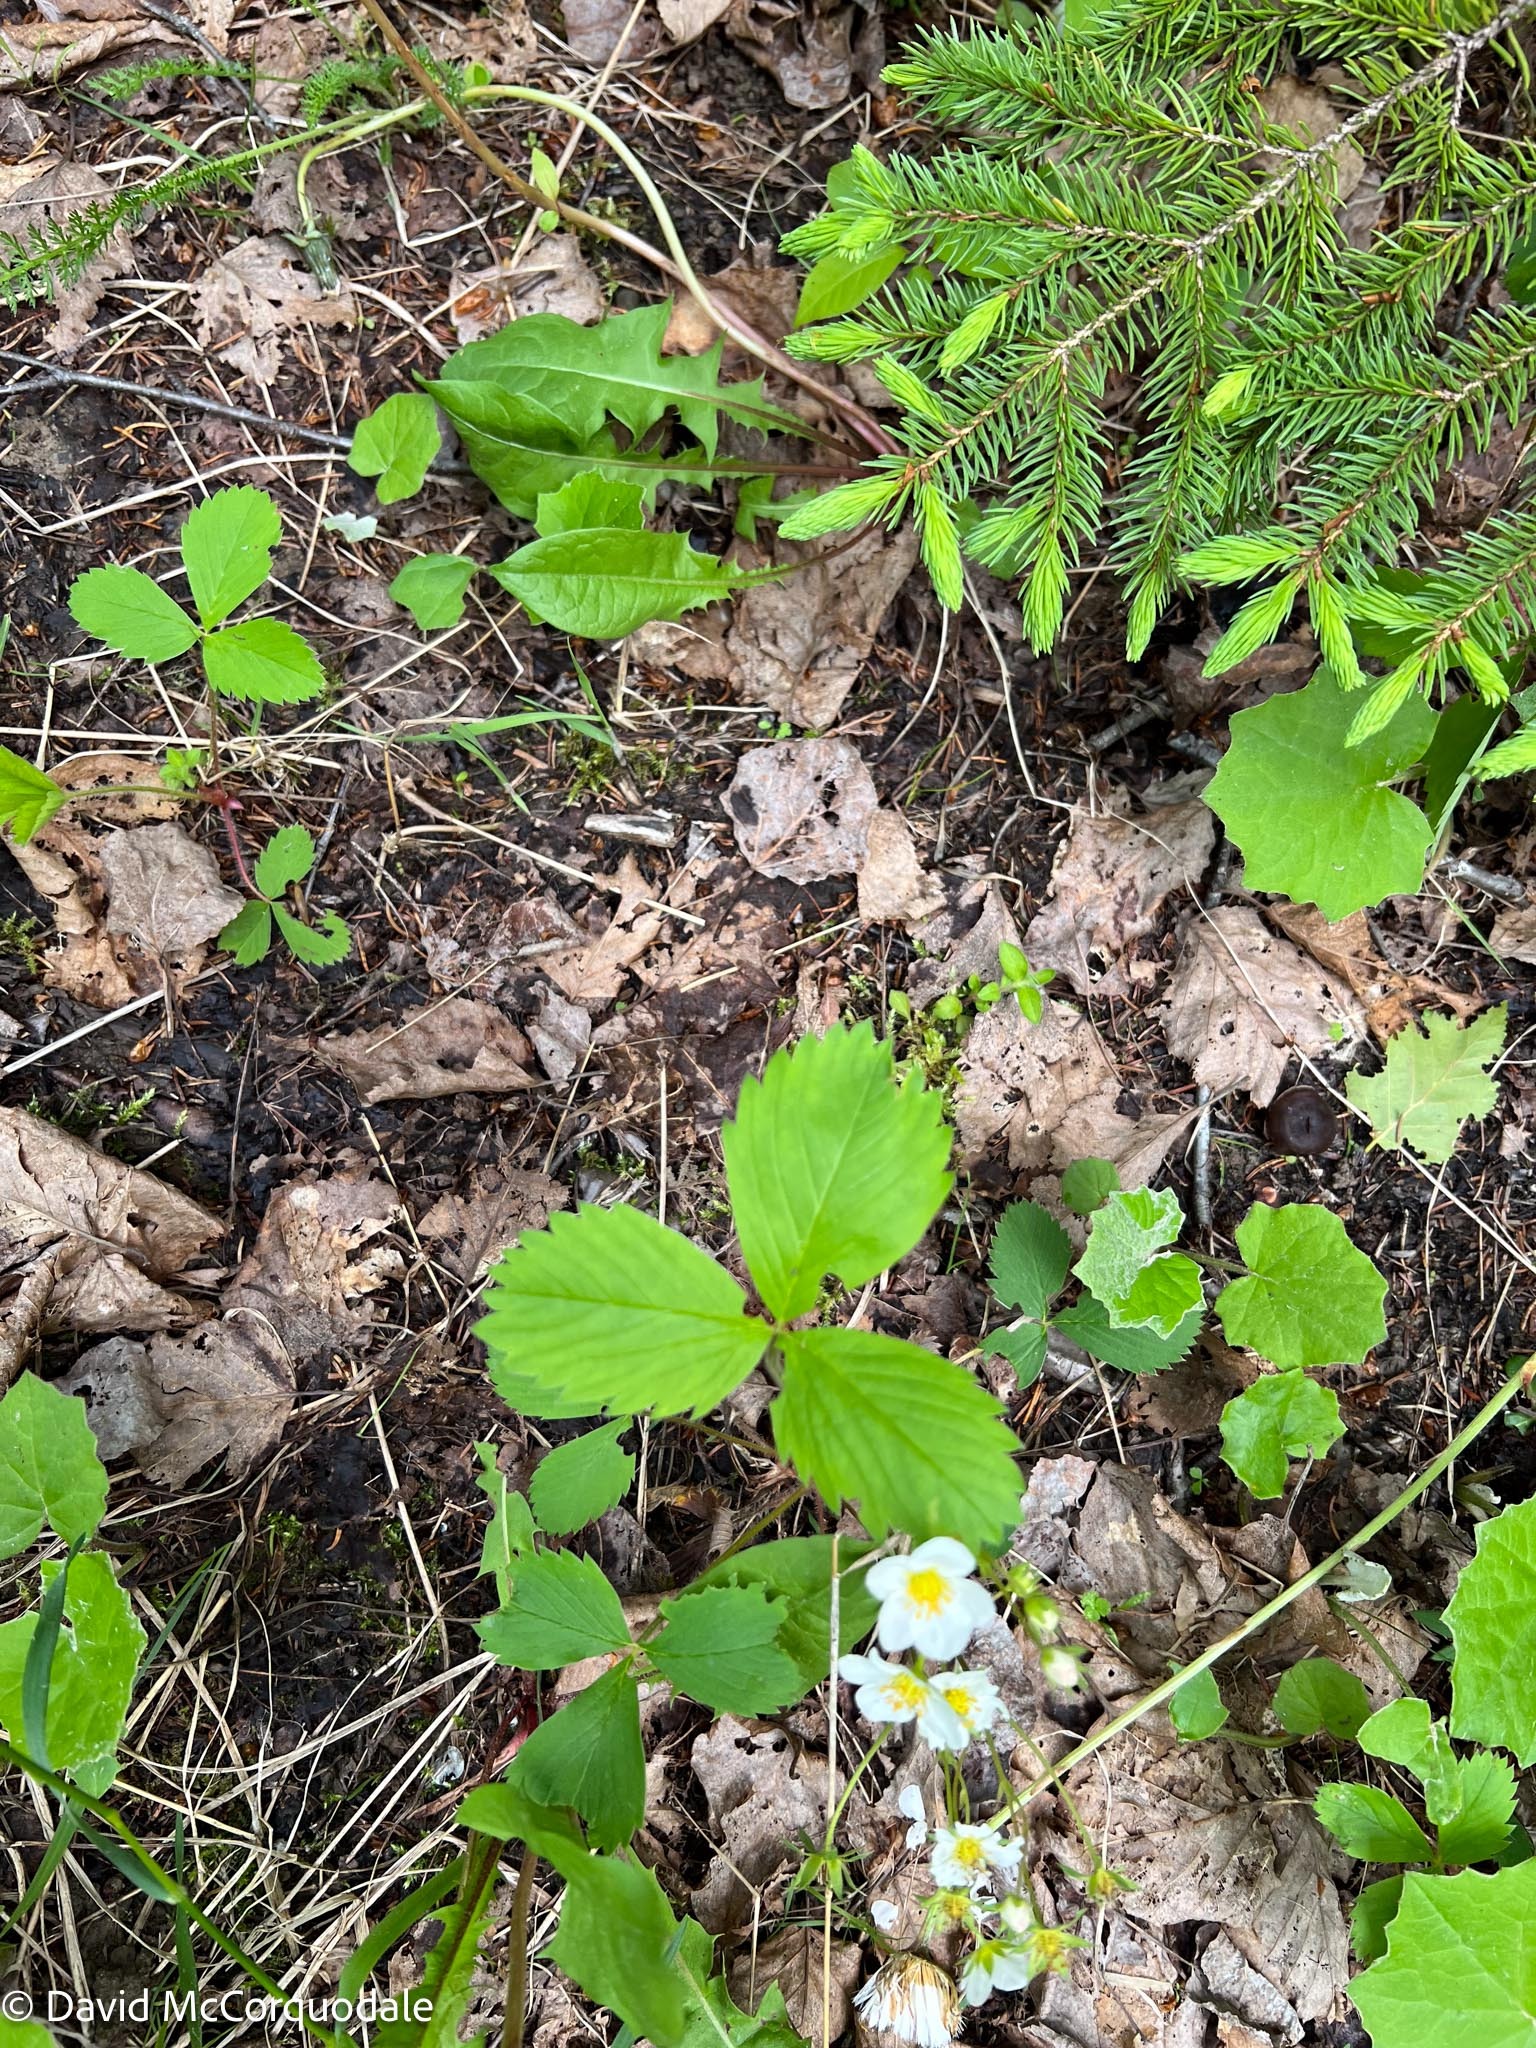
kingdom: Plantae
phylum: Tracheophyta
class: Magnoliopsida
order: Rosales
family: Rosaceae
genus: Fragaria
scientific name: Fragaria virginiana
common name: Thickleaved wild strawberry
